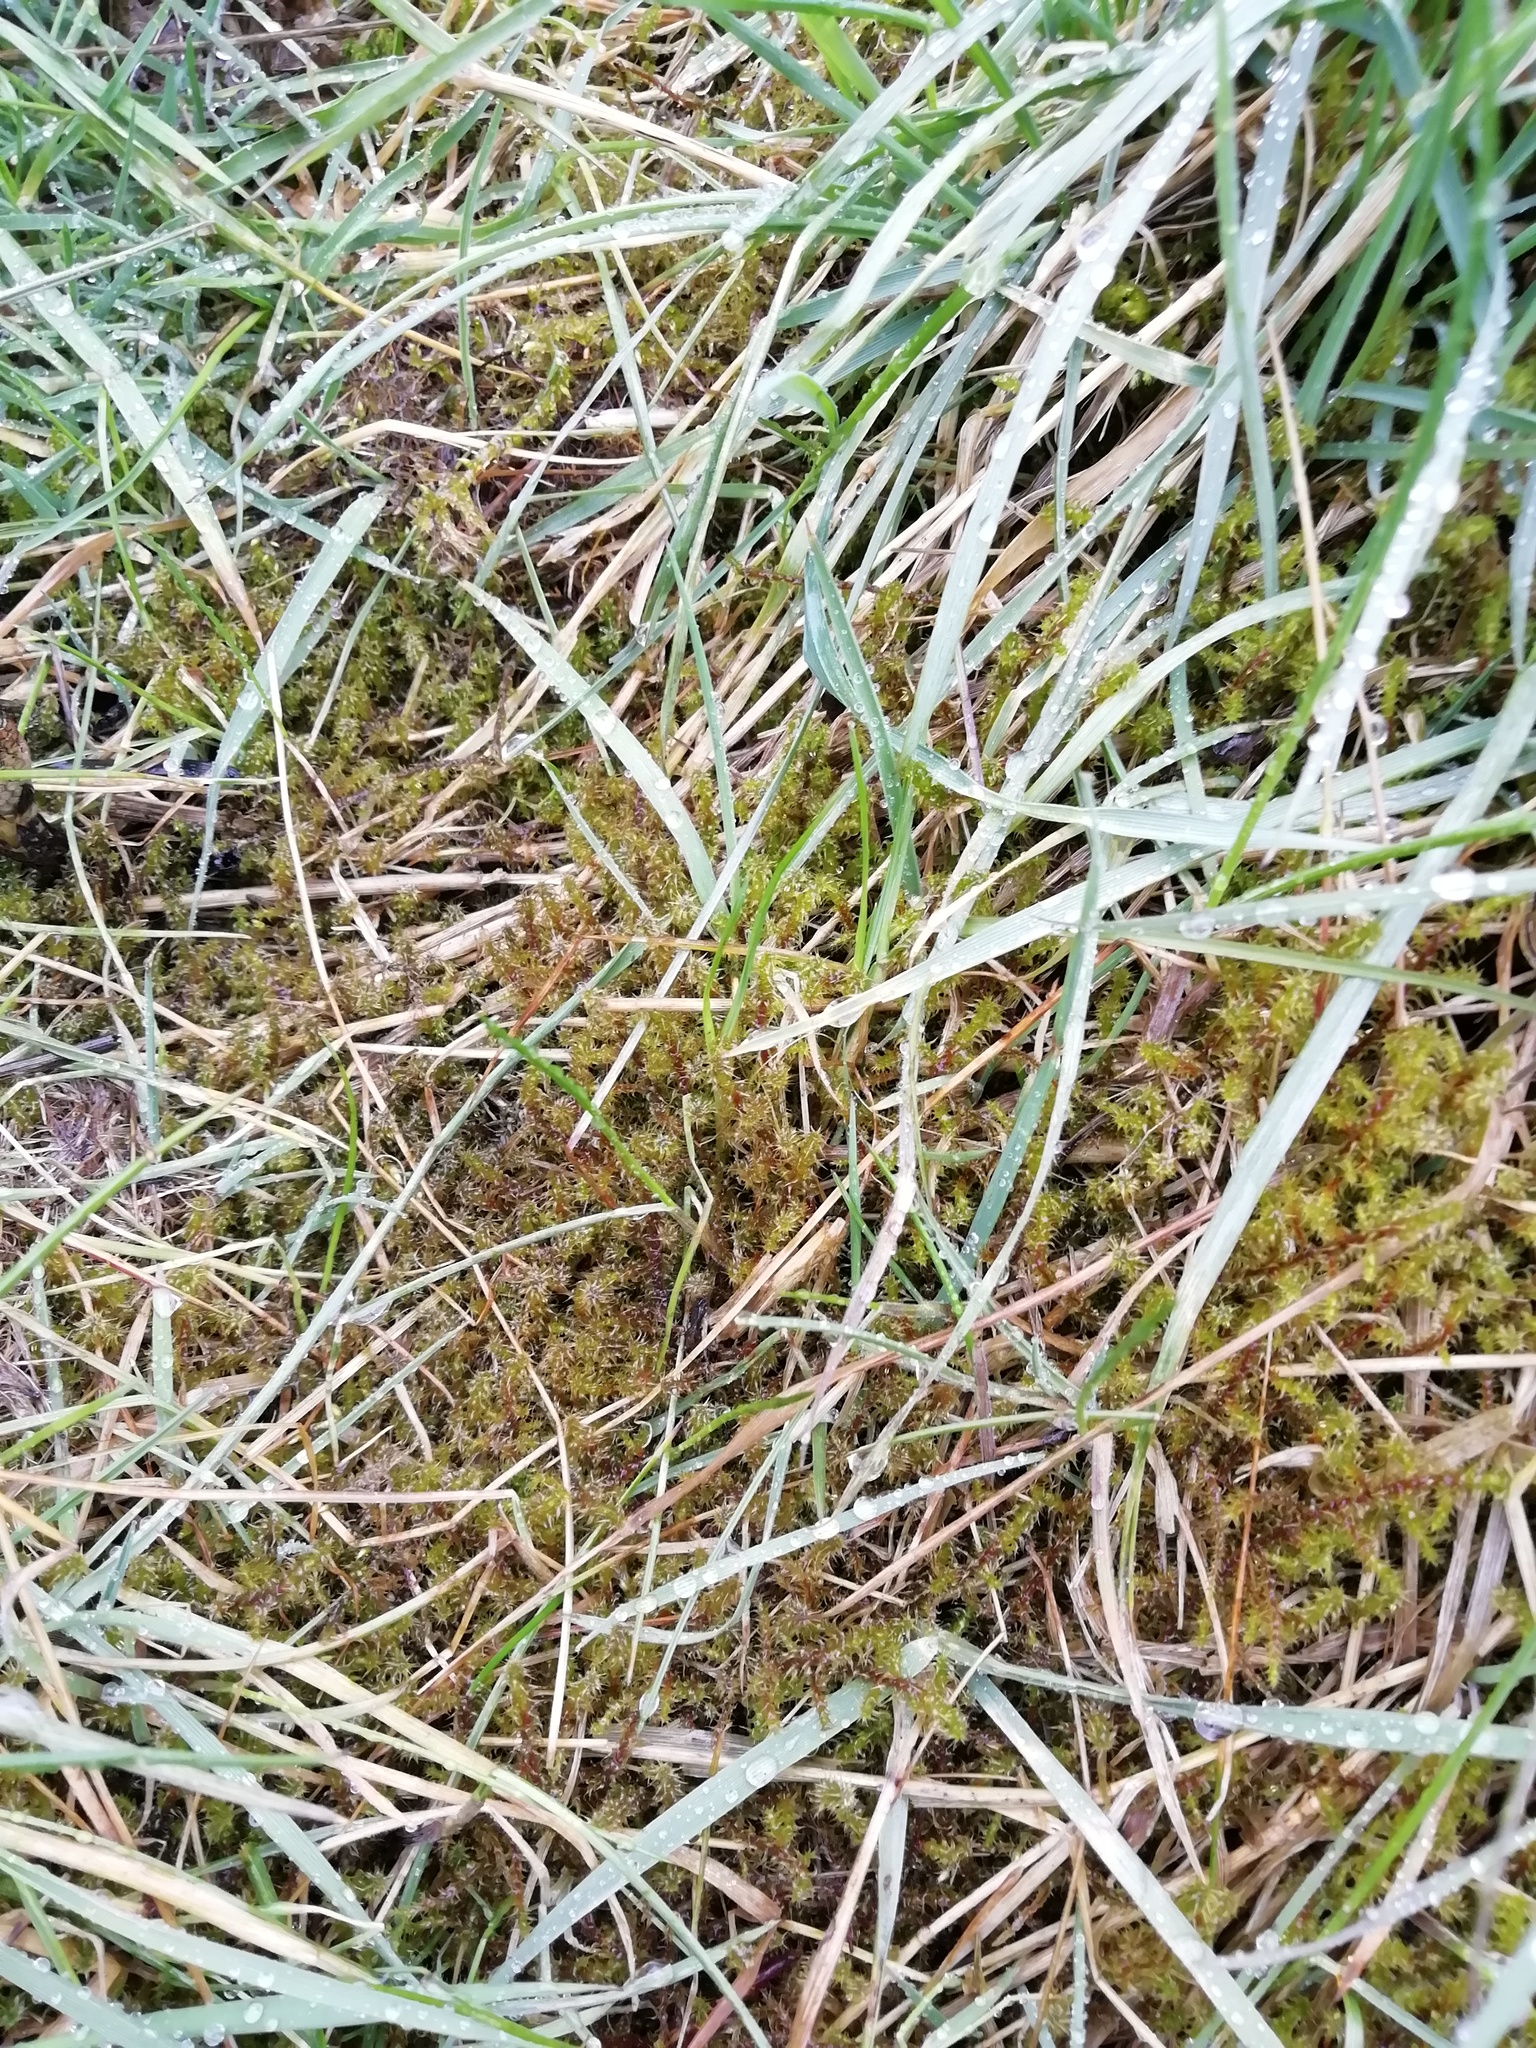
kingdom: Plantae
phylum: Bryophyta
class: Bryopsida
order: Hypnales
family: Hylocomiaceae
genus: Rhytidiadelphus
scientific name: Rhytidiadelphus squarrosus
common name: Springy turf-moss
